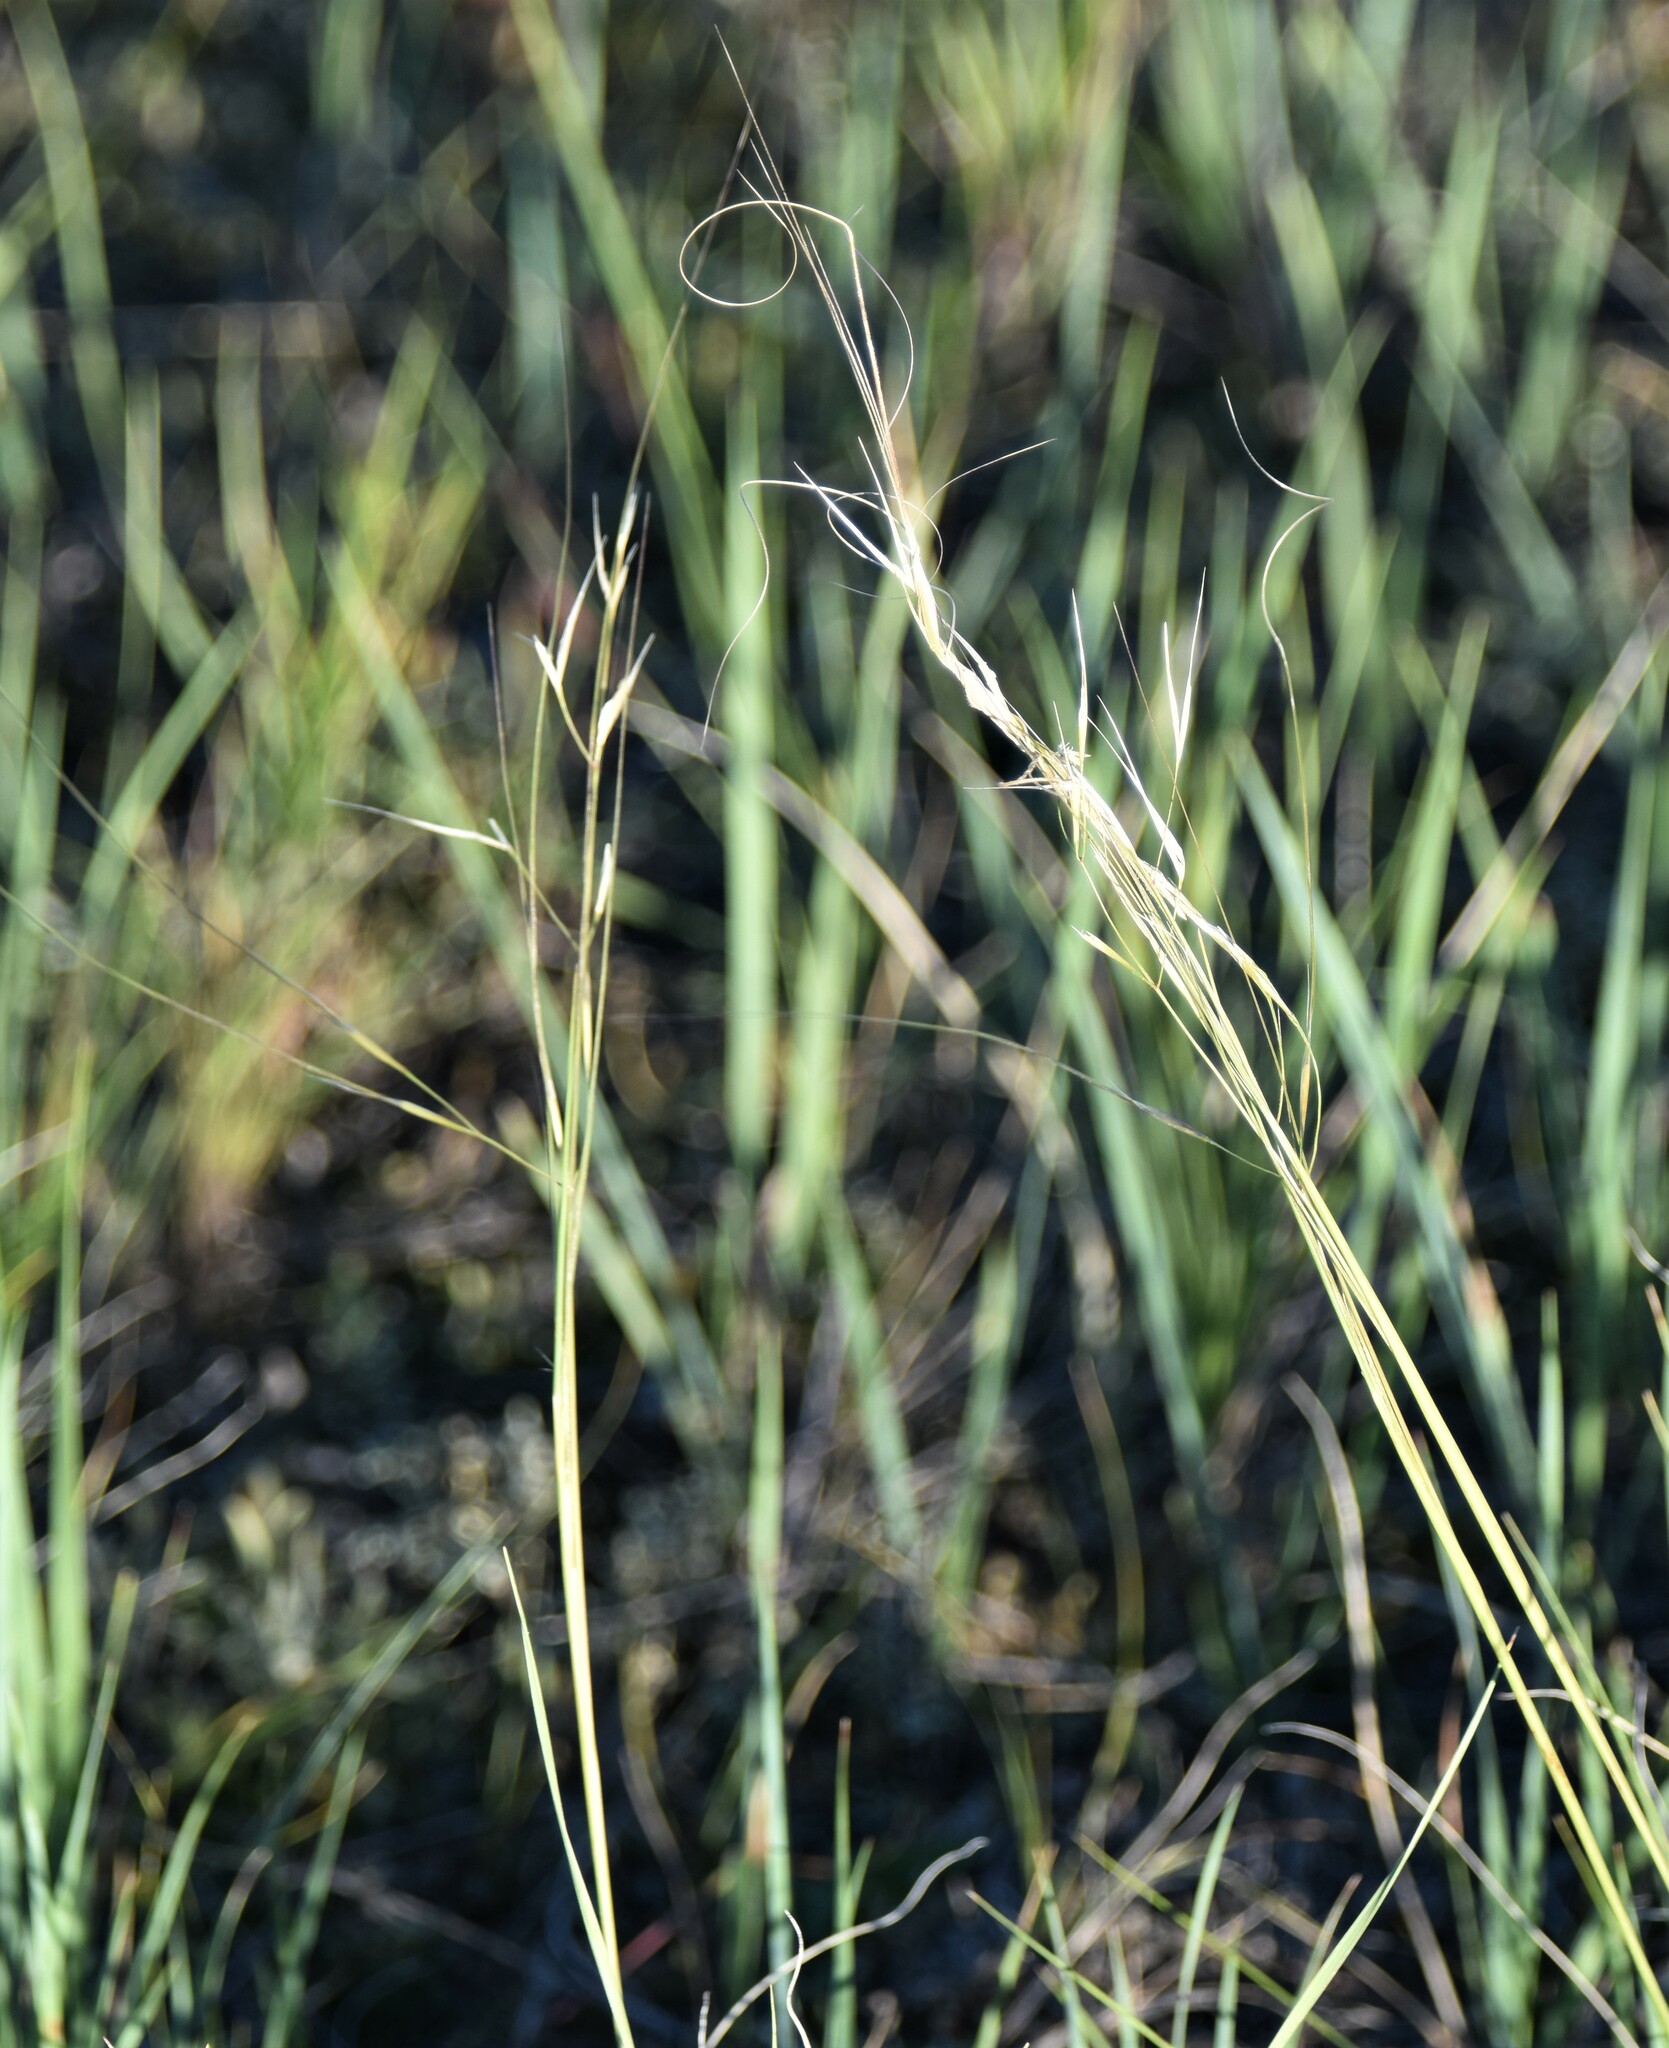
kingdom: Plantae
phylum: Tracheophyta
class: Liliopsida
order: Poales
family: Poaceae
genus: Hesperostipa
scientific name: Hesperostipa comata
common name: Needle-and-thread grass
